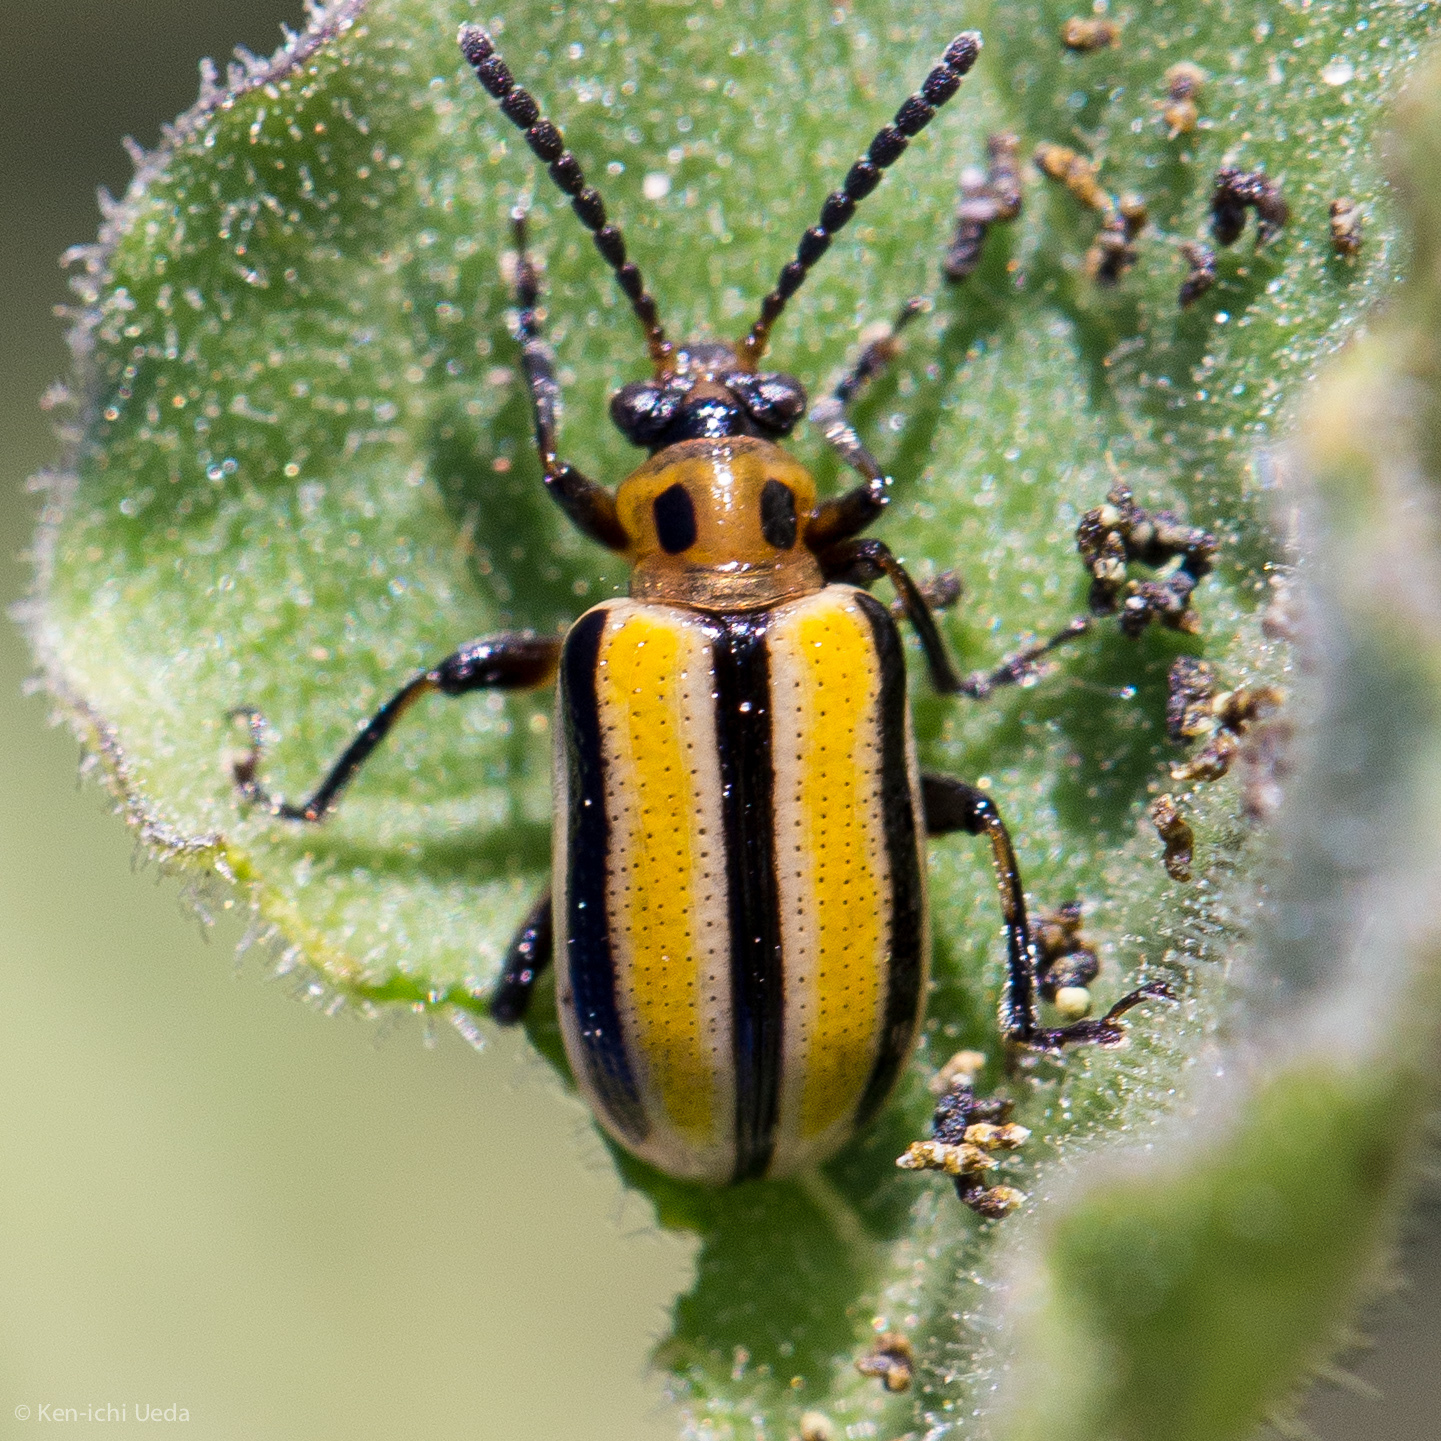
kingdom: Animalia
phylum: Arthropoda
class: Insecta
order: Coleoptera
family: Chrysomelidae
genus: Lema
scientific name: Lema daturaphila
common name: Leaf beetle
